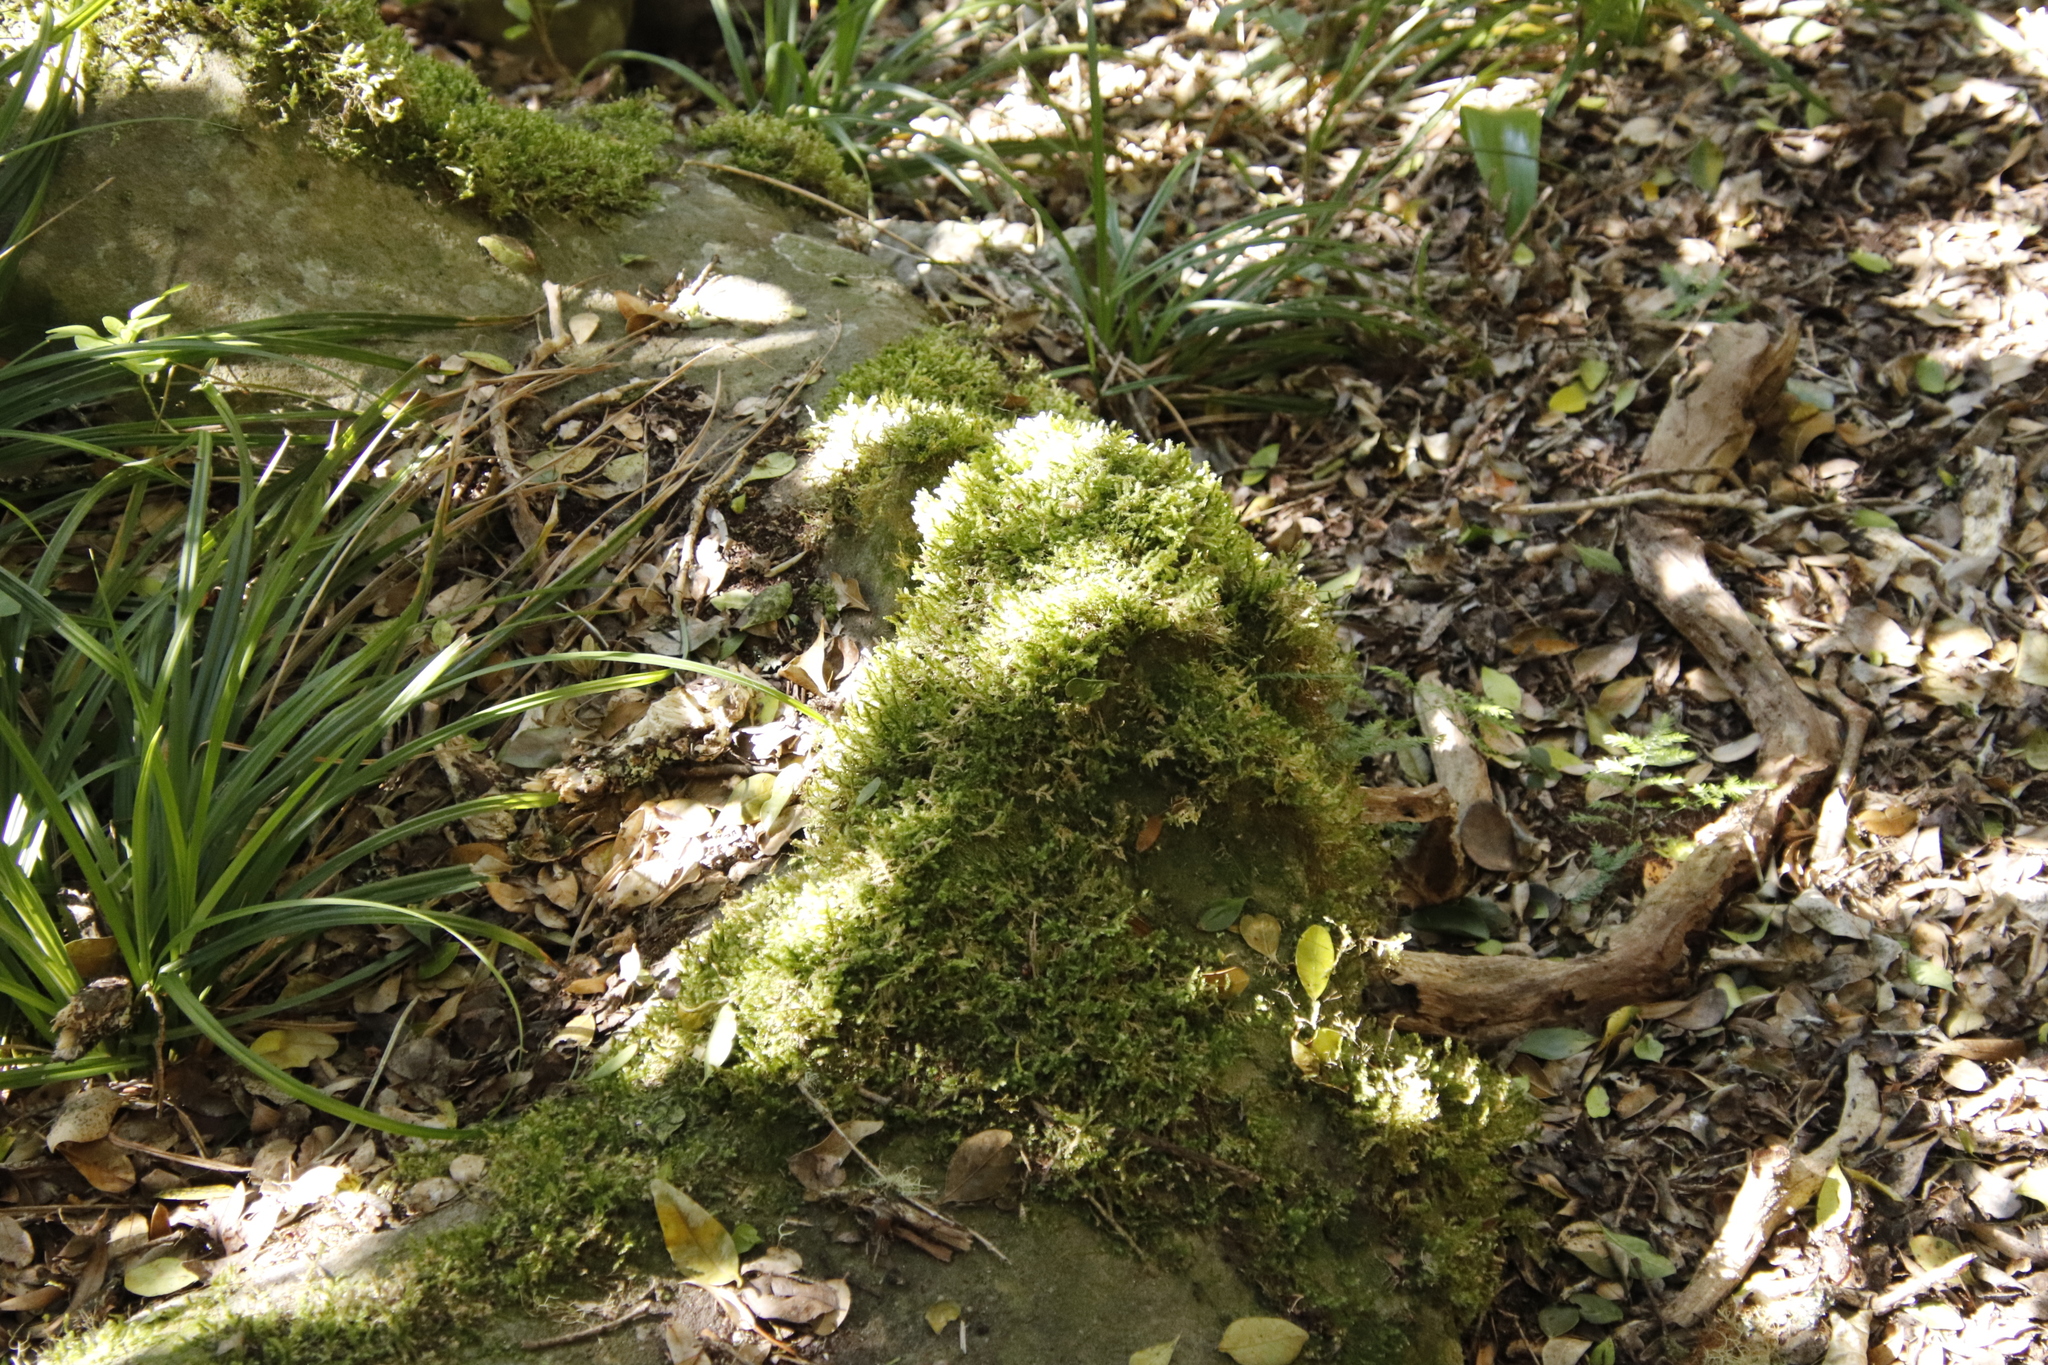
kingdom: Plantae
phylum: Bryophyta
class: Bryopsida
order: Hypnales
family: Neckeraceae
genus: Alleniella
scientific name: Alleniella ehrenbergii
